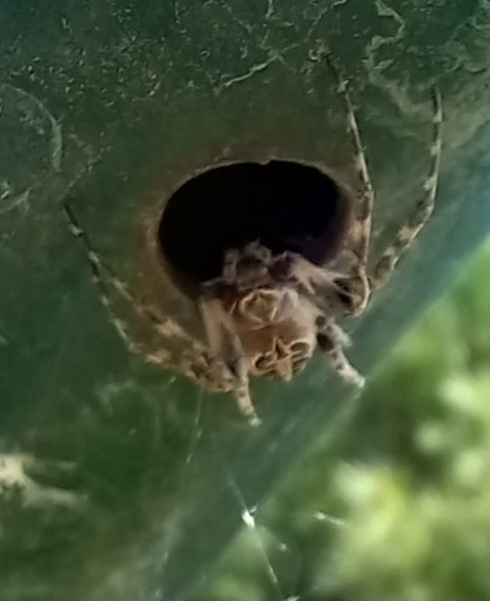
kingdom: Animalia
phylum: Arthropoda
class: Arachnida
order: Araneae
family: Araneidae
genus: Larinioides
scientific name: Larinioides sclopetarius
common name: Bridge orbweaver
